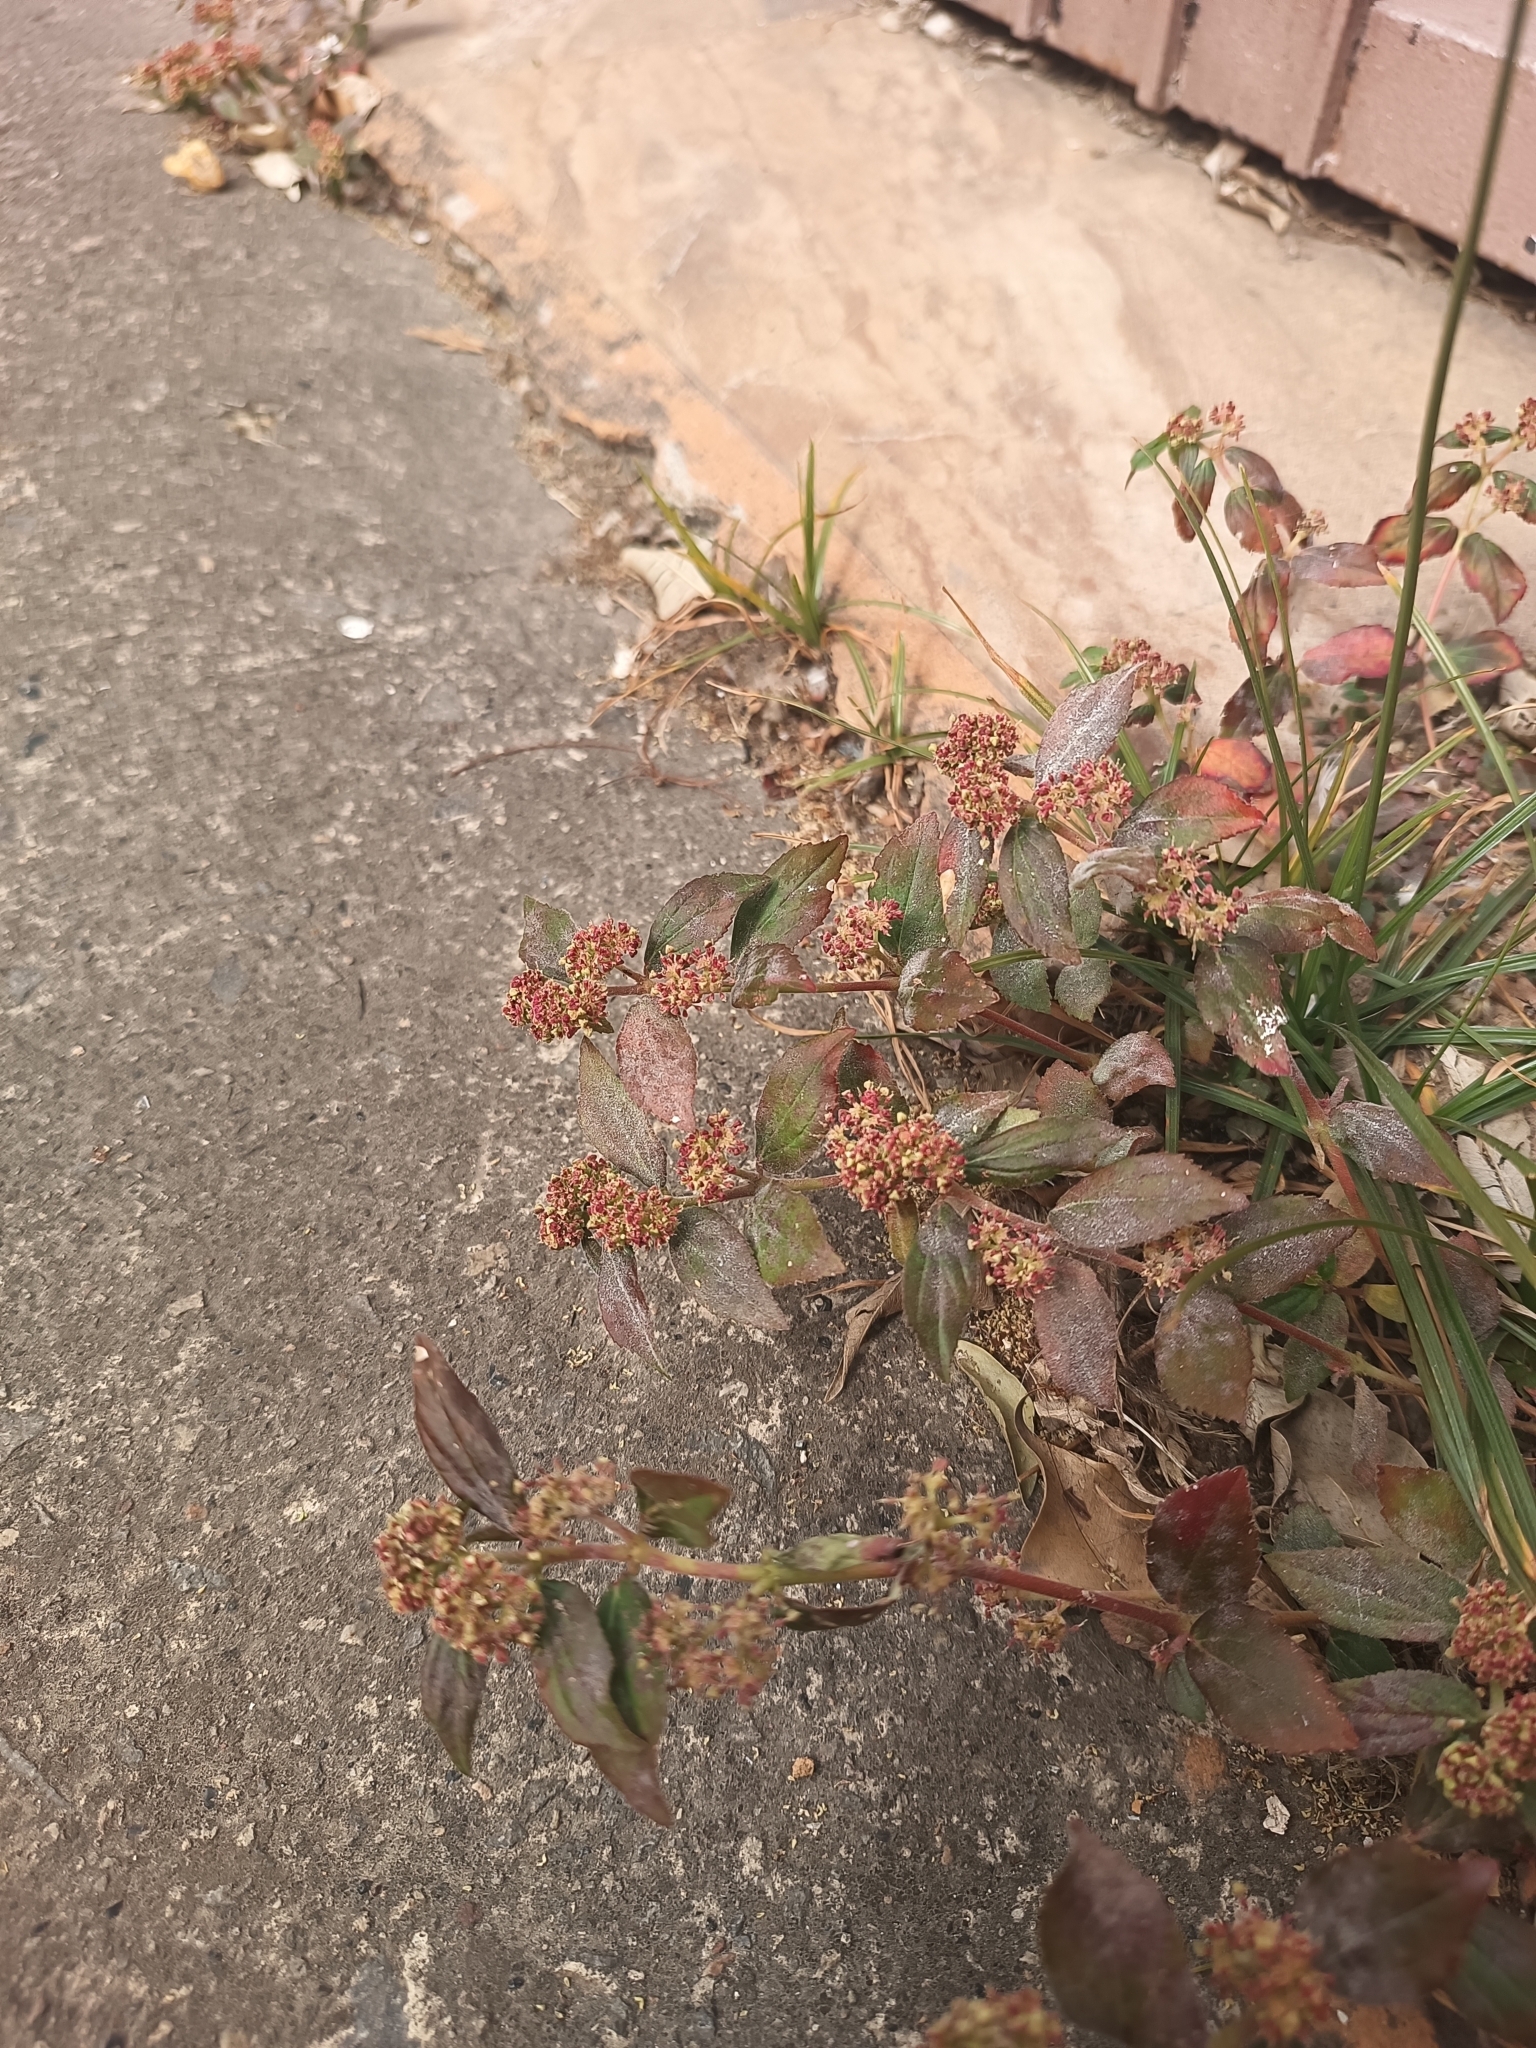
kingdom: Plantae
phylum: Tracheophyta
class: Magnoliopsida
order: Malpighiales
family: Euphorbiaceae
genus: Euphorbia
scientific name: Euphorbia hirta
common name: Pillpod sandmat
